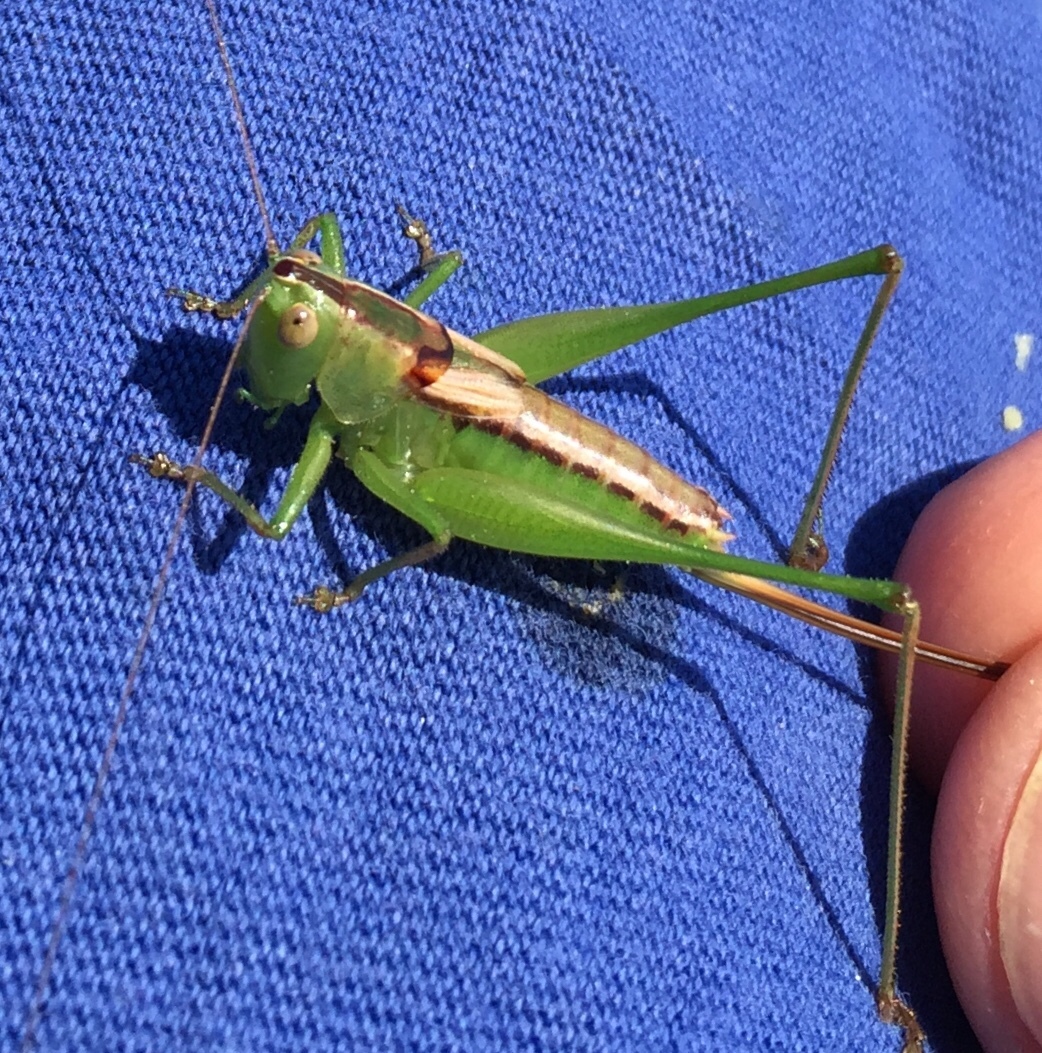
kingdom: Animalia
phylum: Arthropoda
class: Insecta
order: Orthoptera
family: Tettigoniidae
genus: Conocephalus
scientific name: Conocephalus strictus
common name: Straight-lanced katydid
